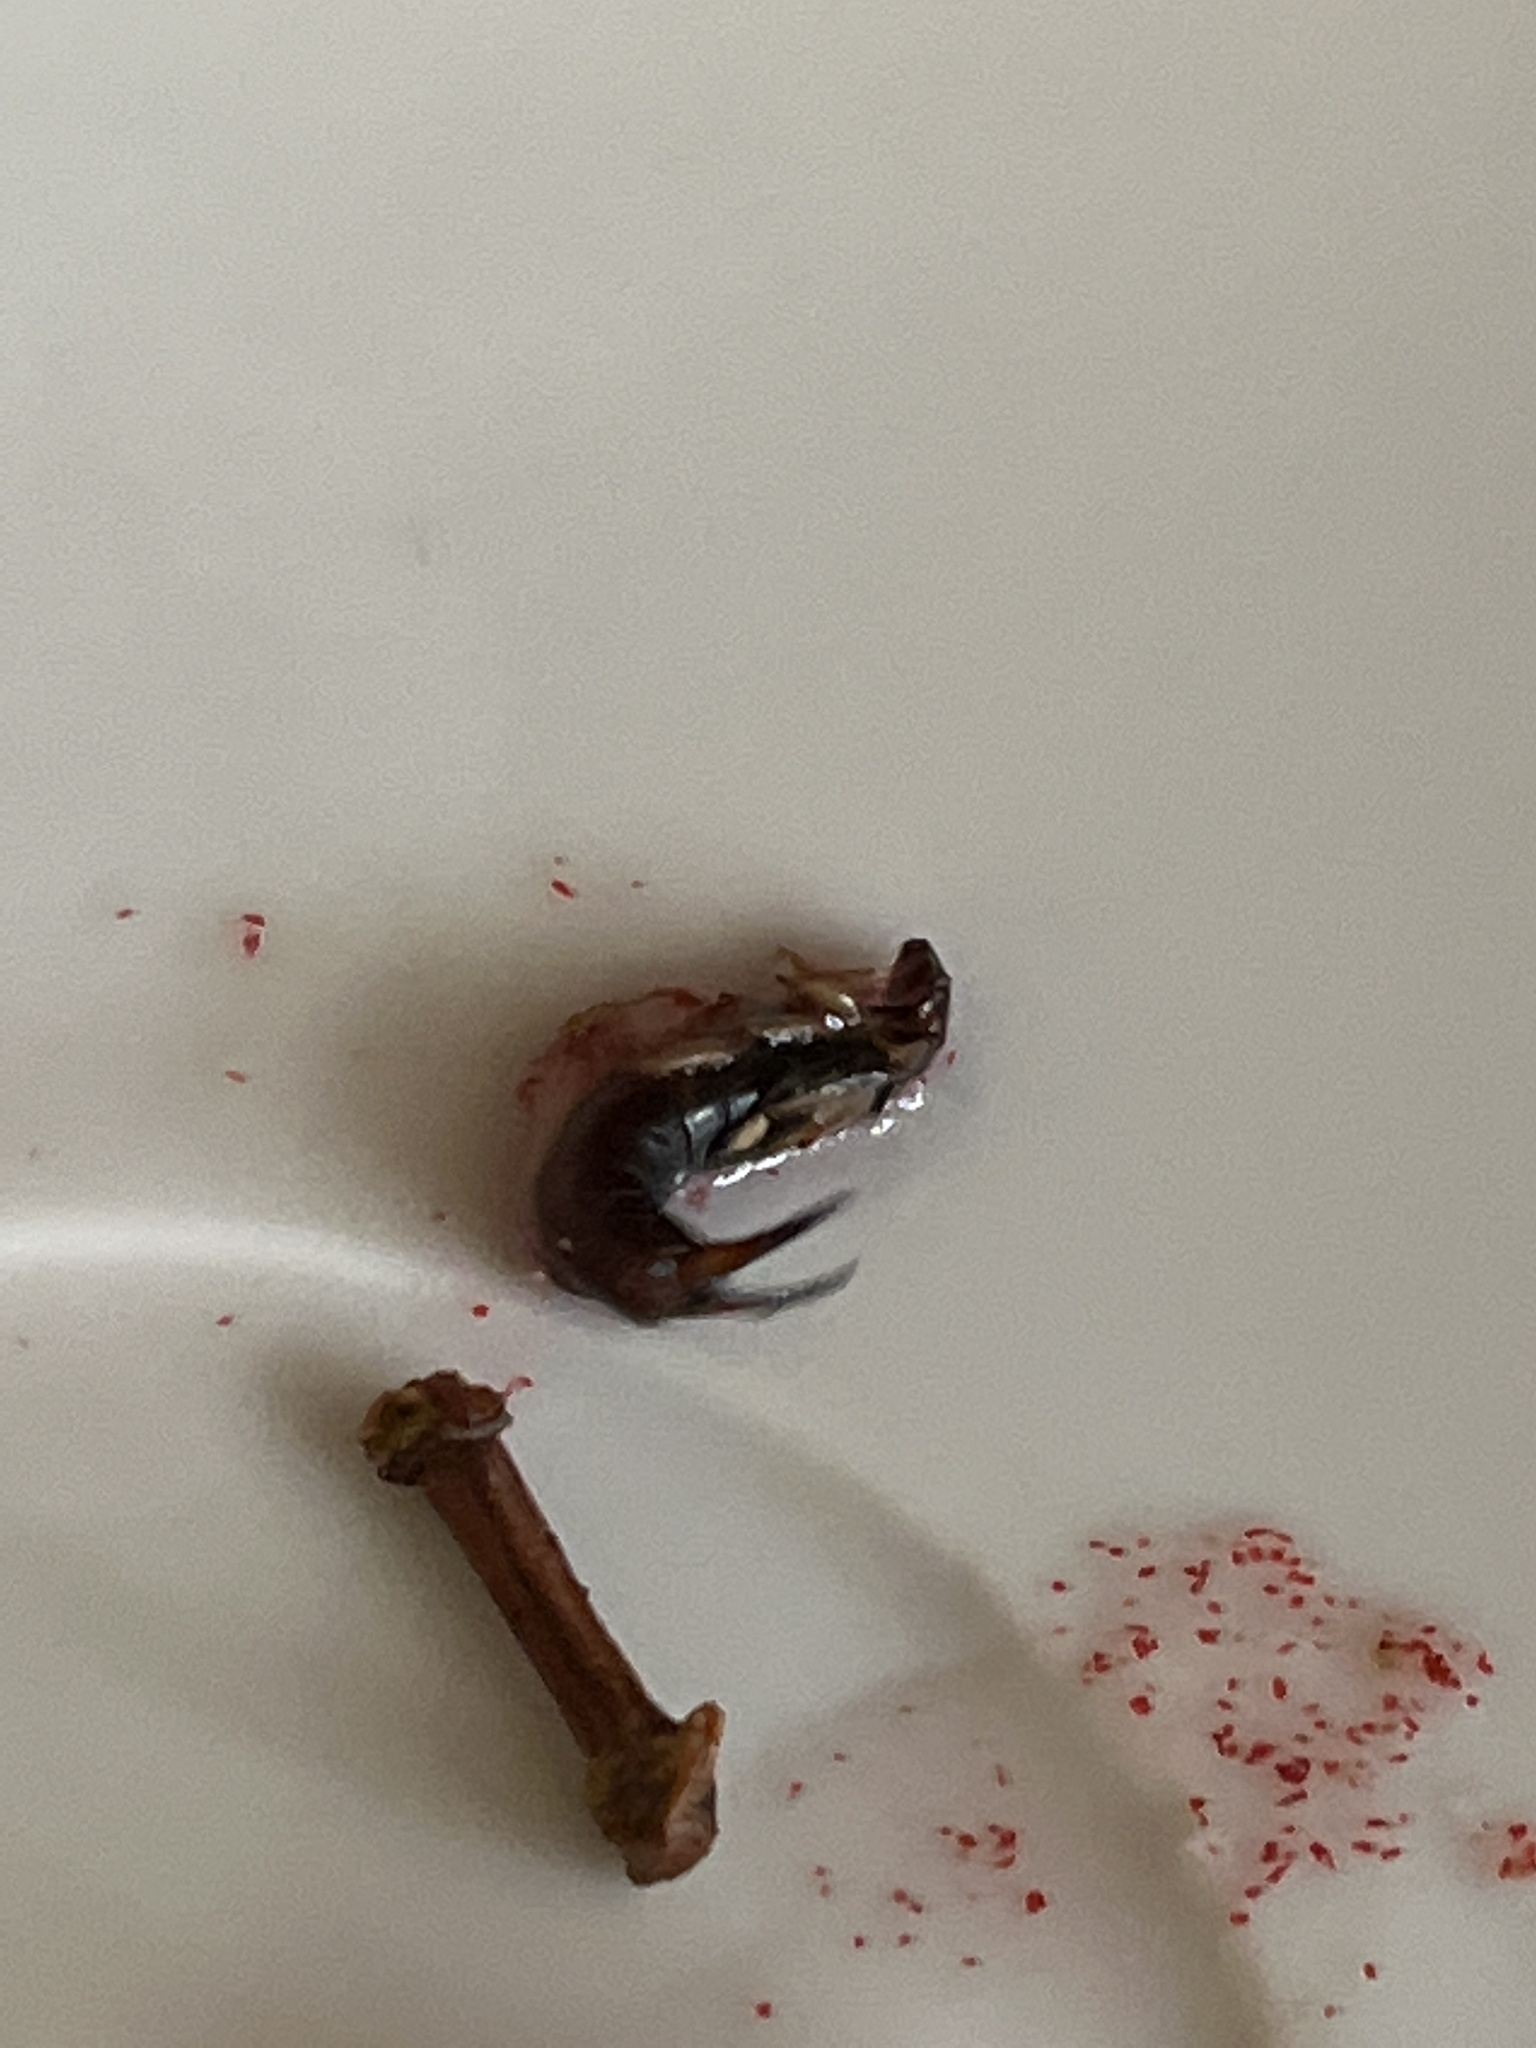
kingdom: Animalia
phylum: Arthropoda
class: Insecta
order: Dermaptera
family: Forficulidae
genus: Forficula
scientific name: Forficula
